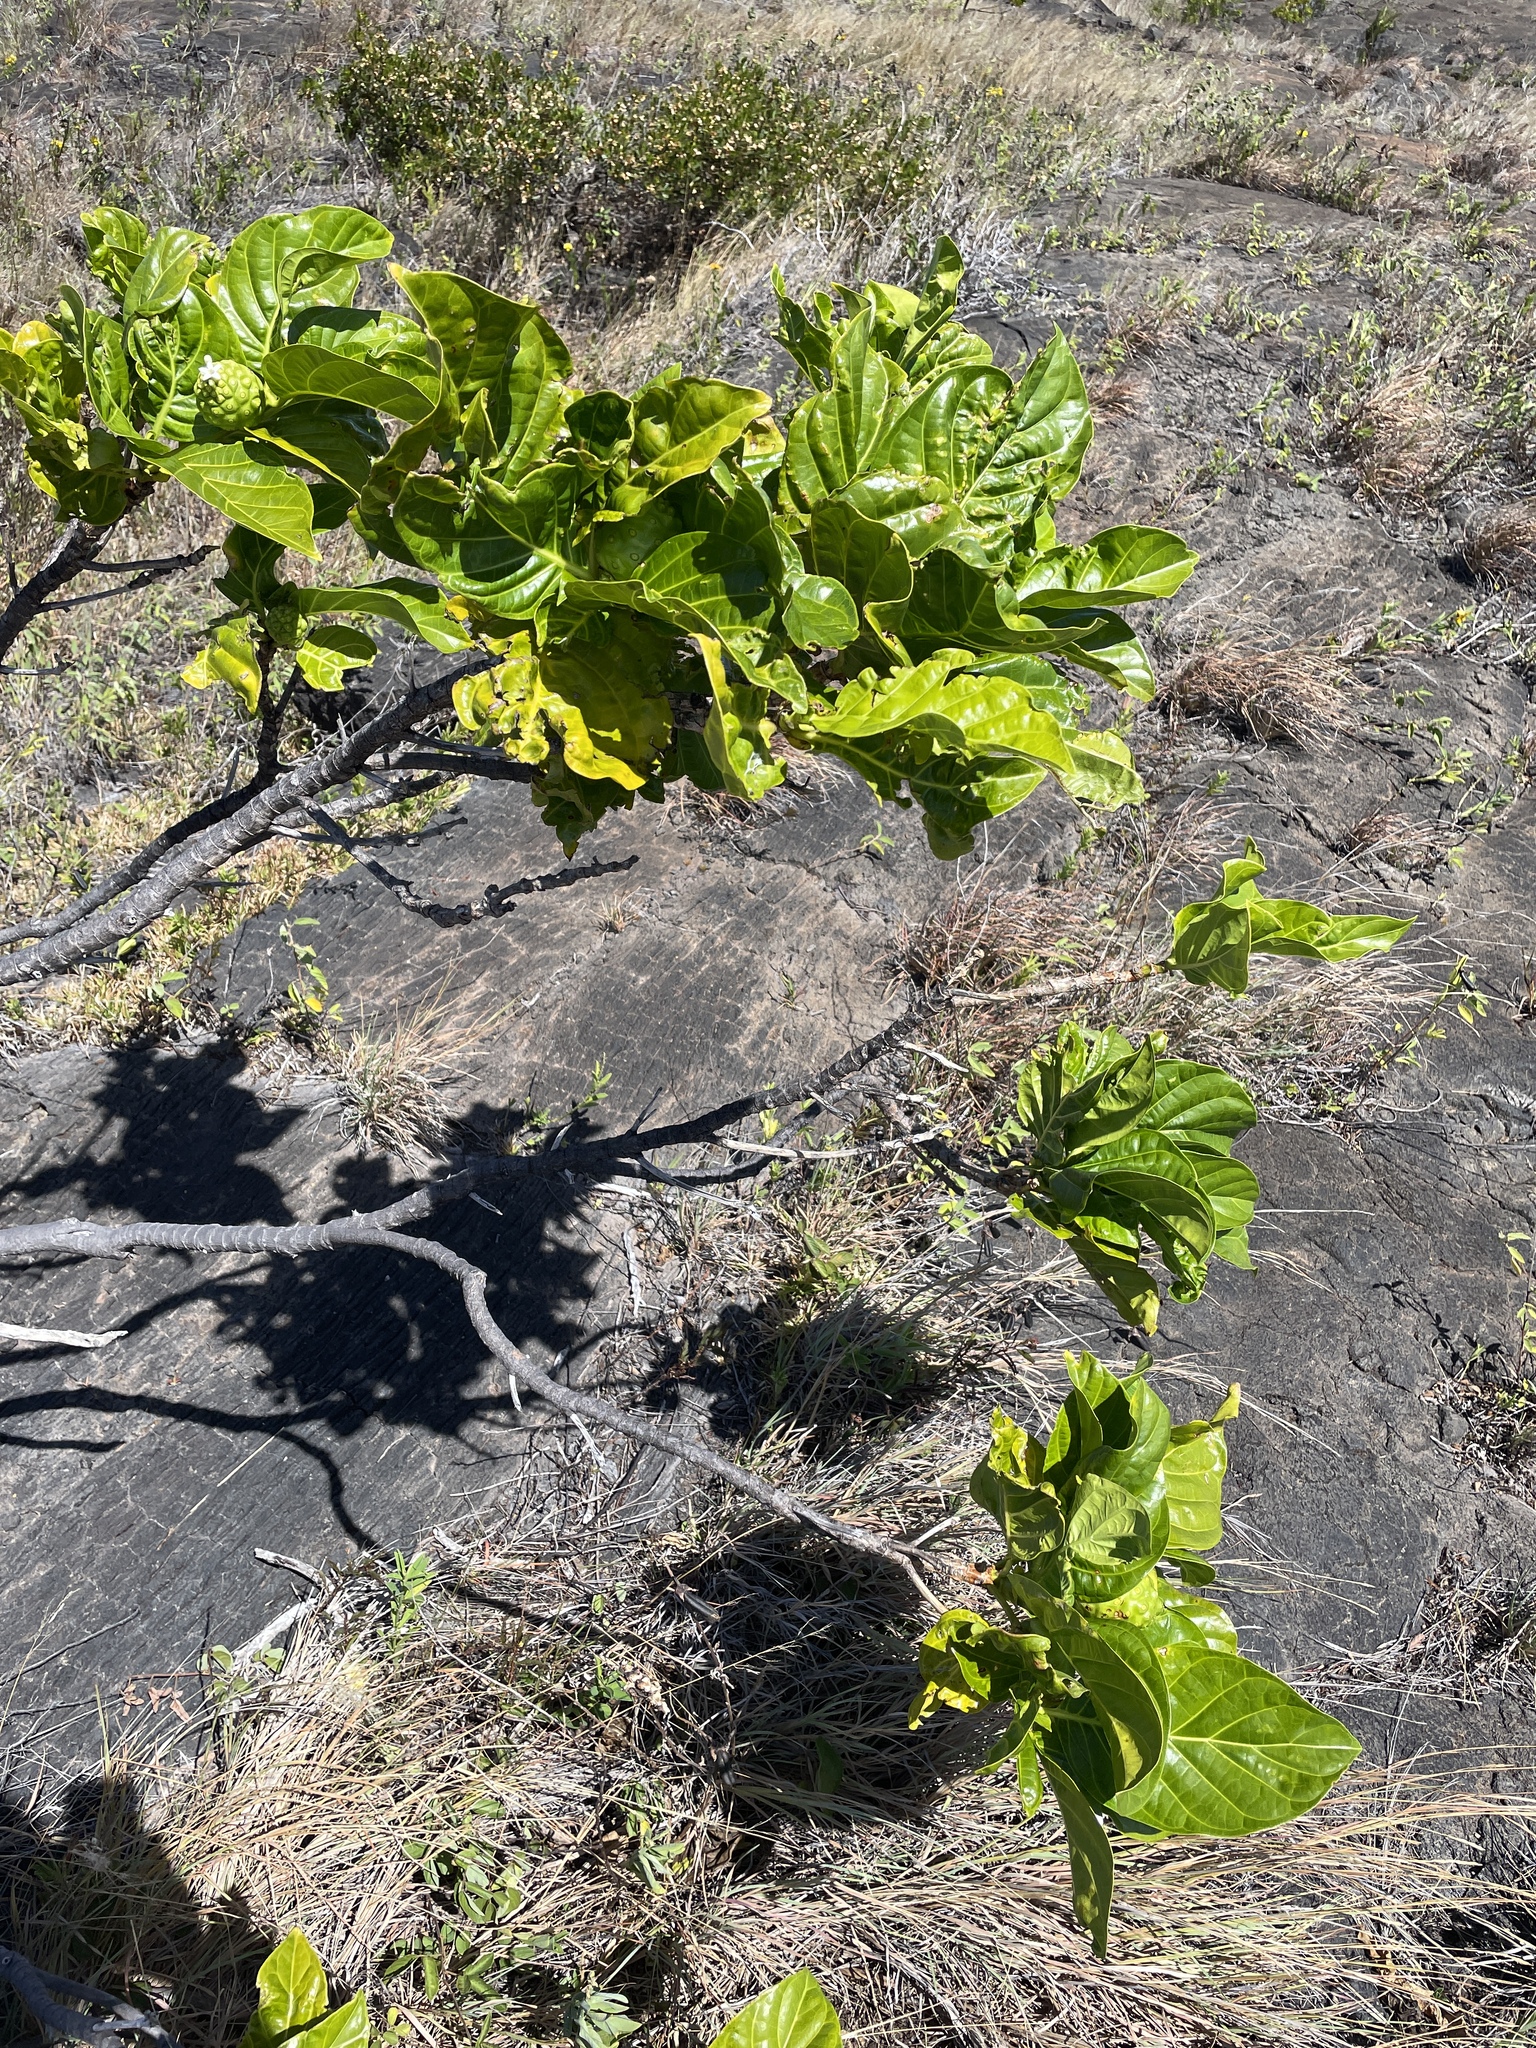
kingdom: Plantae
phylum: Tracheophyta
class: Magnoliopsida
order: Gentianales
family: Rubiaceae
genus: Morinda
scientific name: Morinda citrifolia
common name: Indian-mulberry
